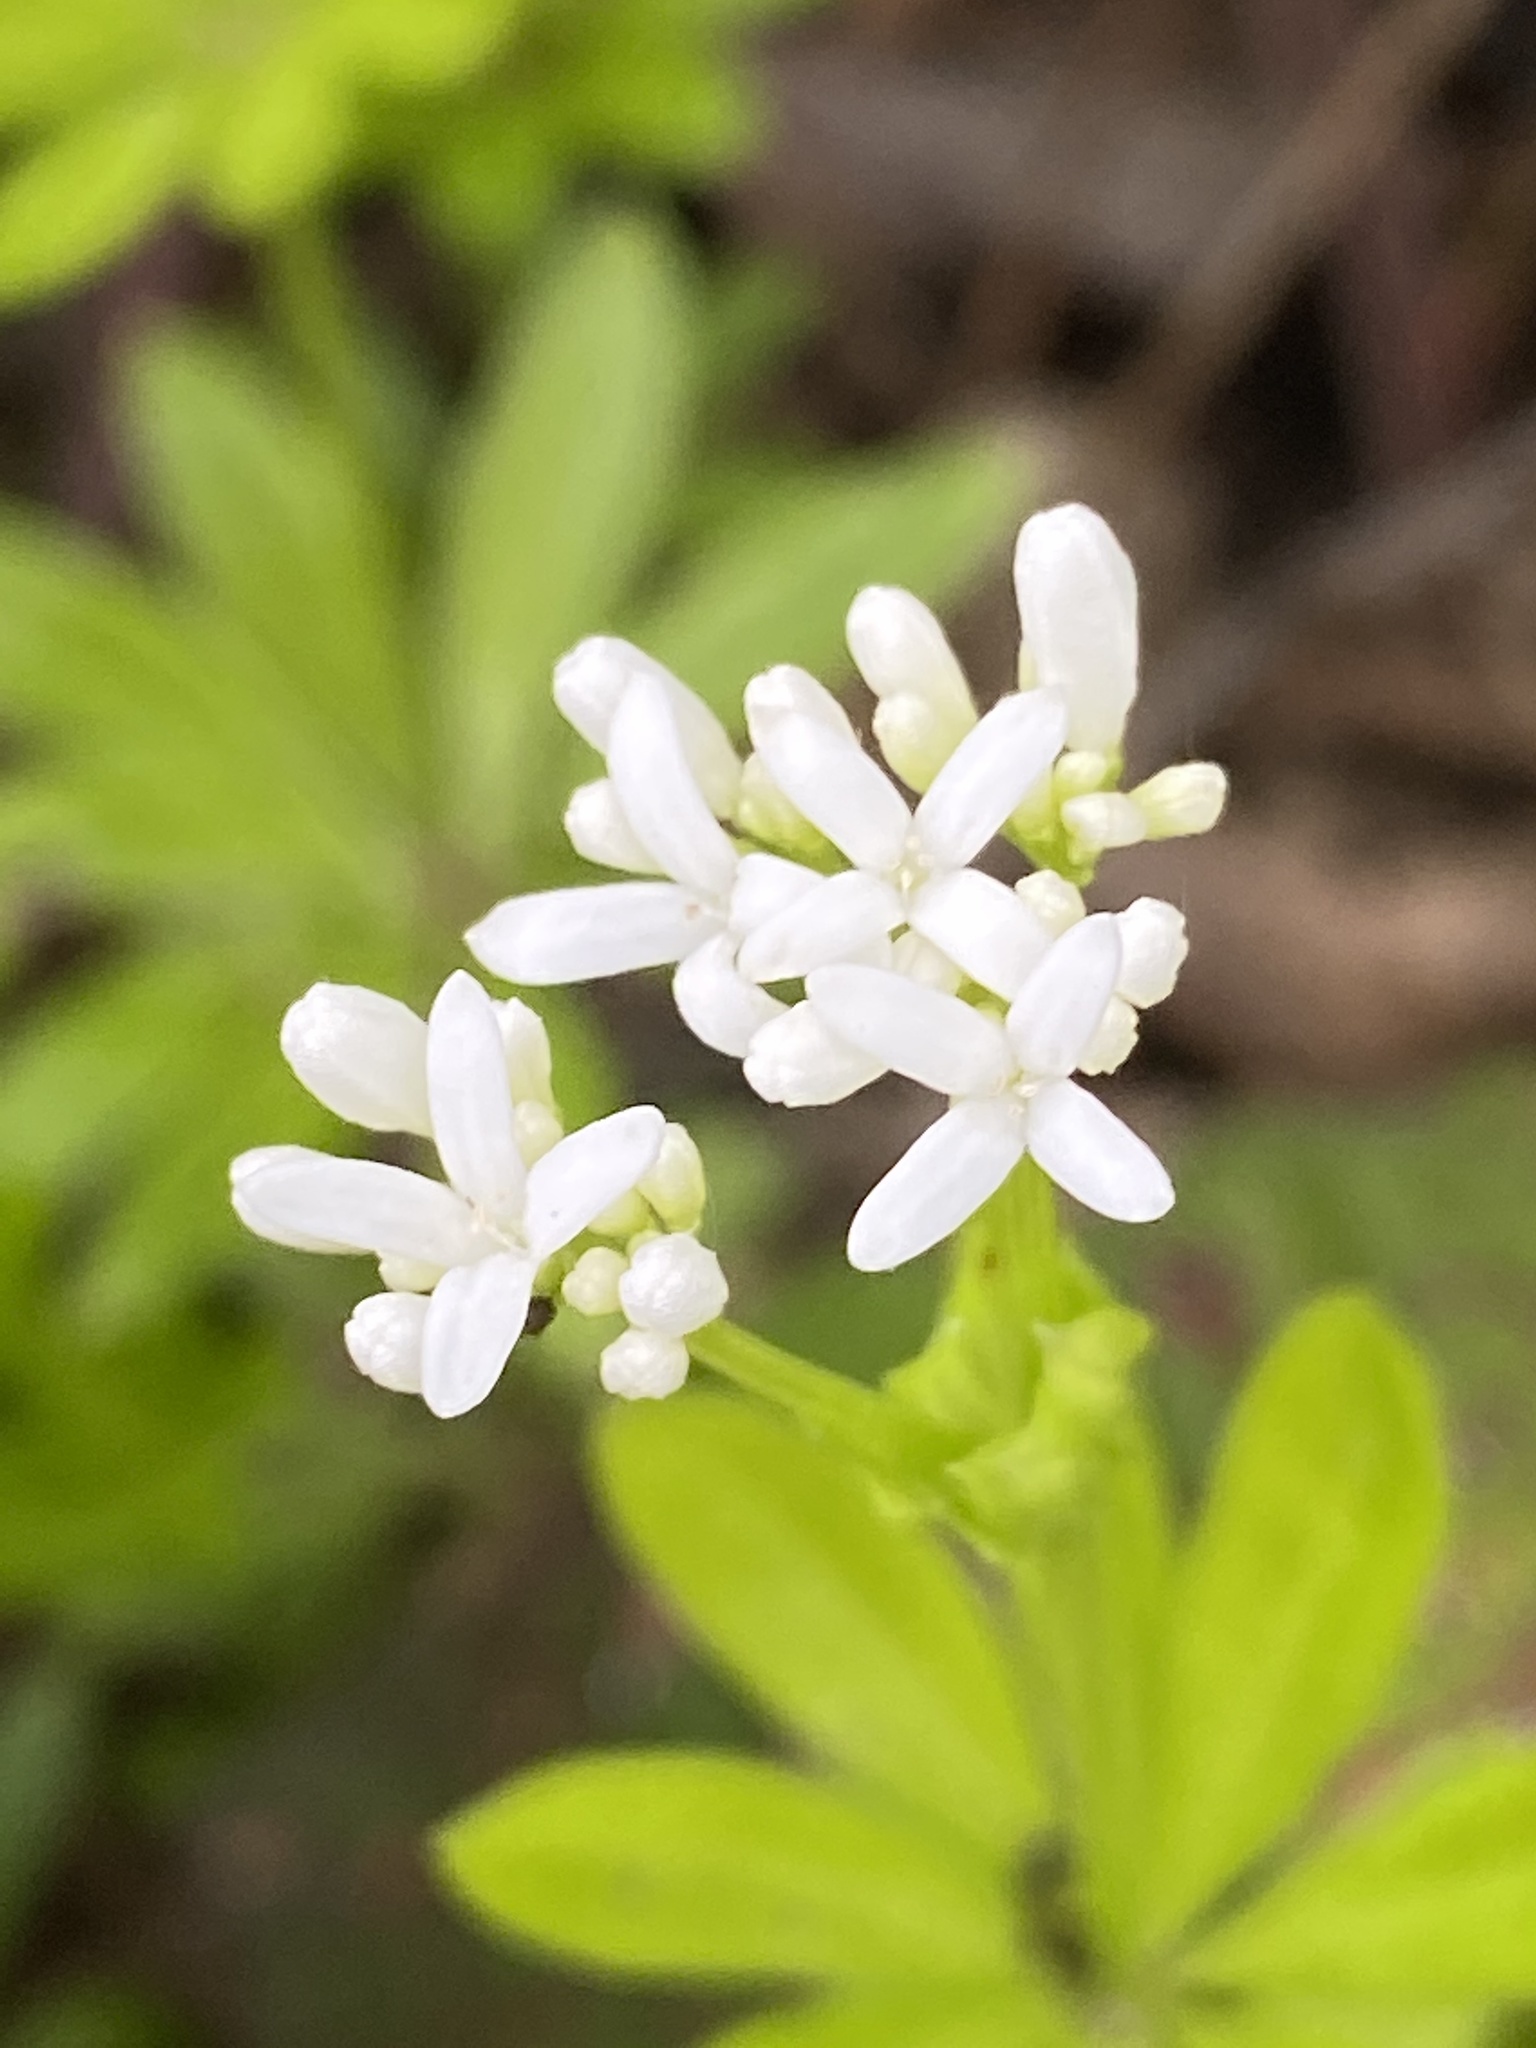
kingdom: Plantae
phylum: Tracheophyta
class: Magnoliopsida
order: Gentianales
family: Rubiaceae
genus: Galium
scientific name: Galium odoratum
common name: Sweet woodruff
